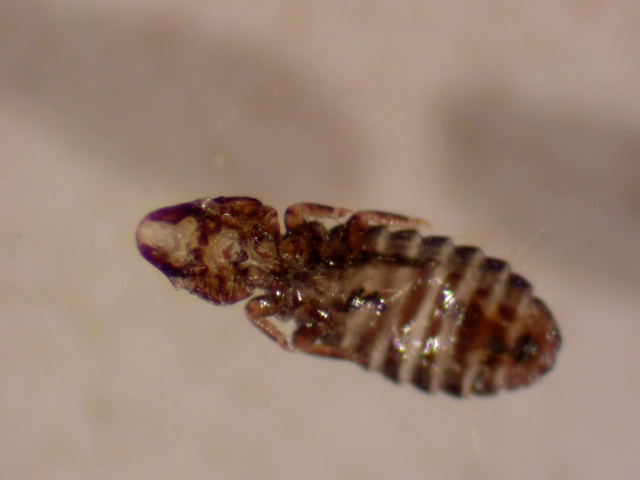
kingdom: Animalia
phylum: Arthropoda
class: Insecta
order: Psocodea
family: Philopteridae
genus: Rallicola
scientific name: Rallicola lugens
